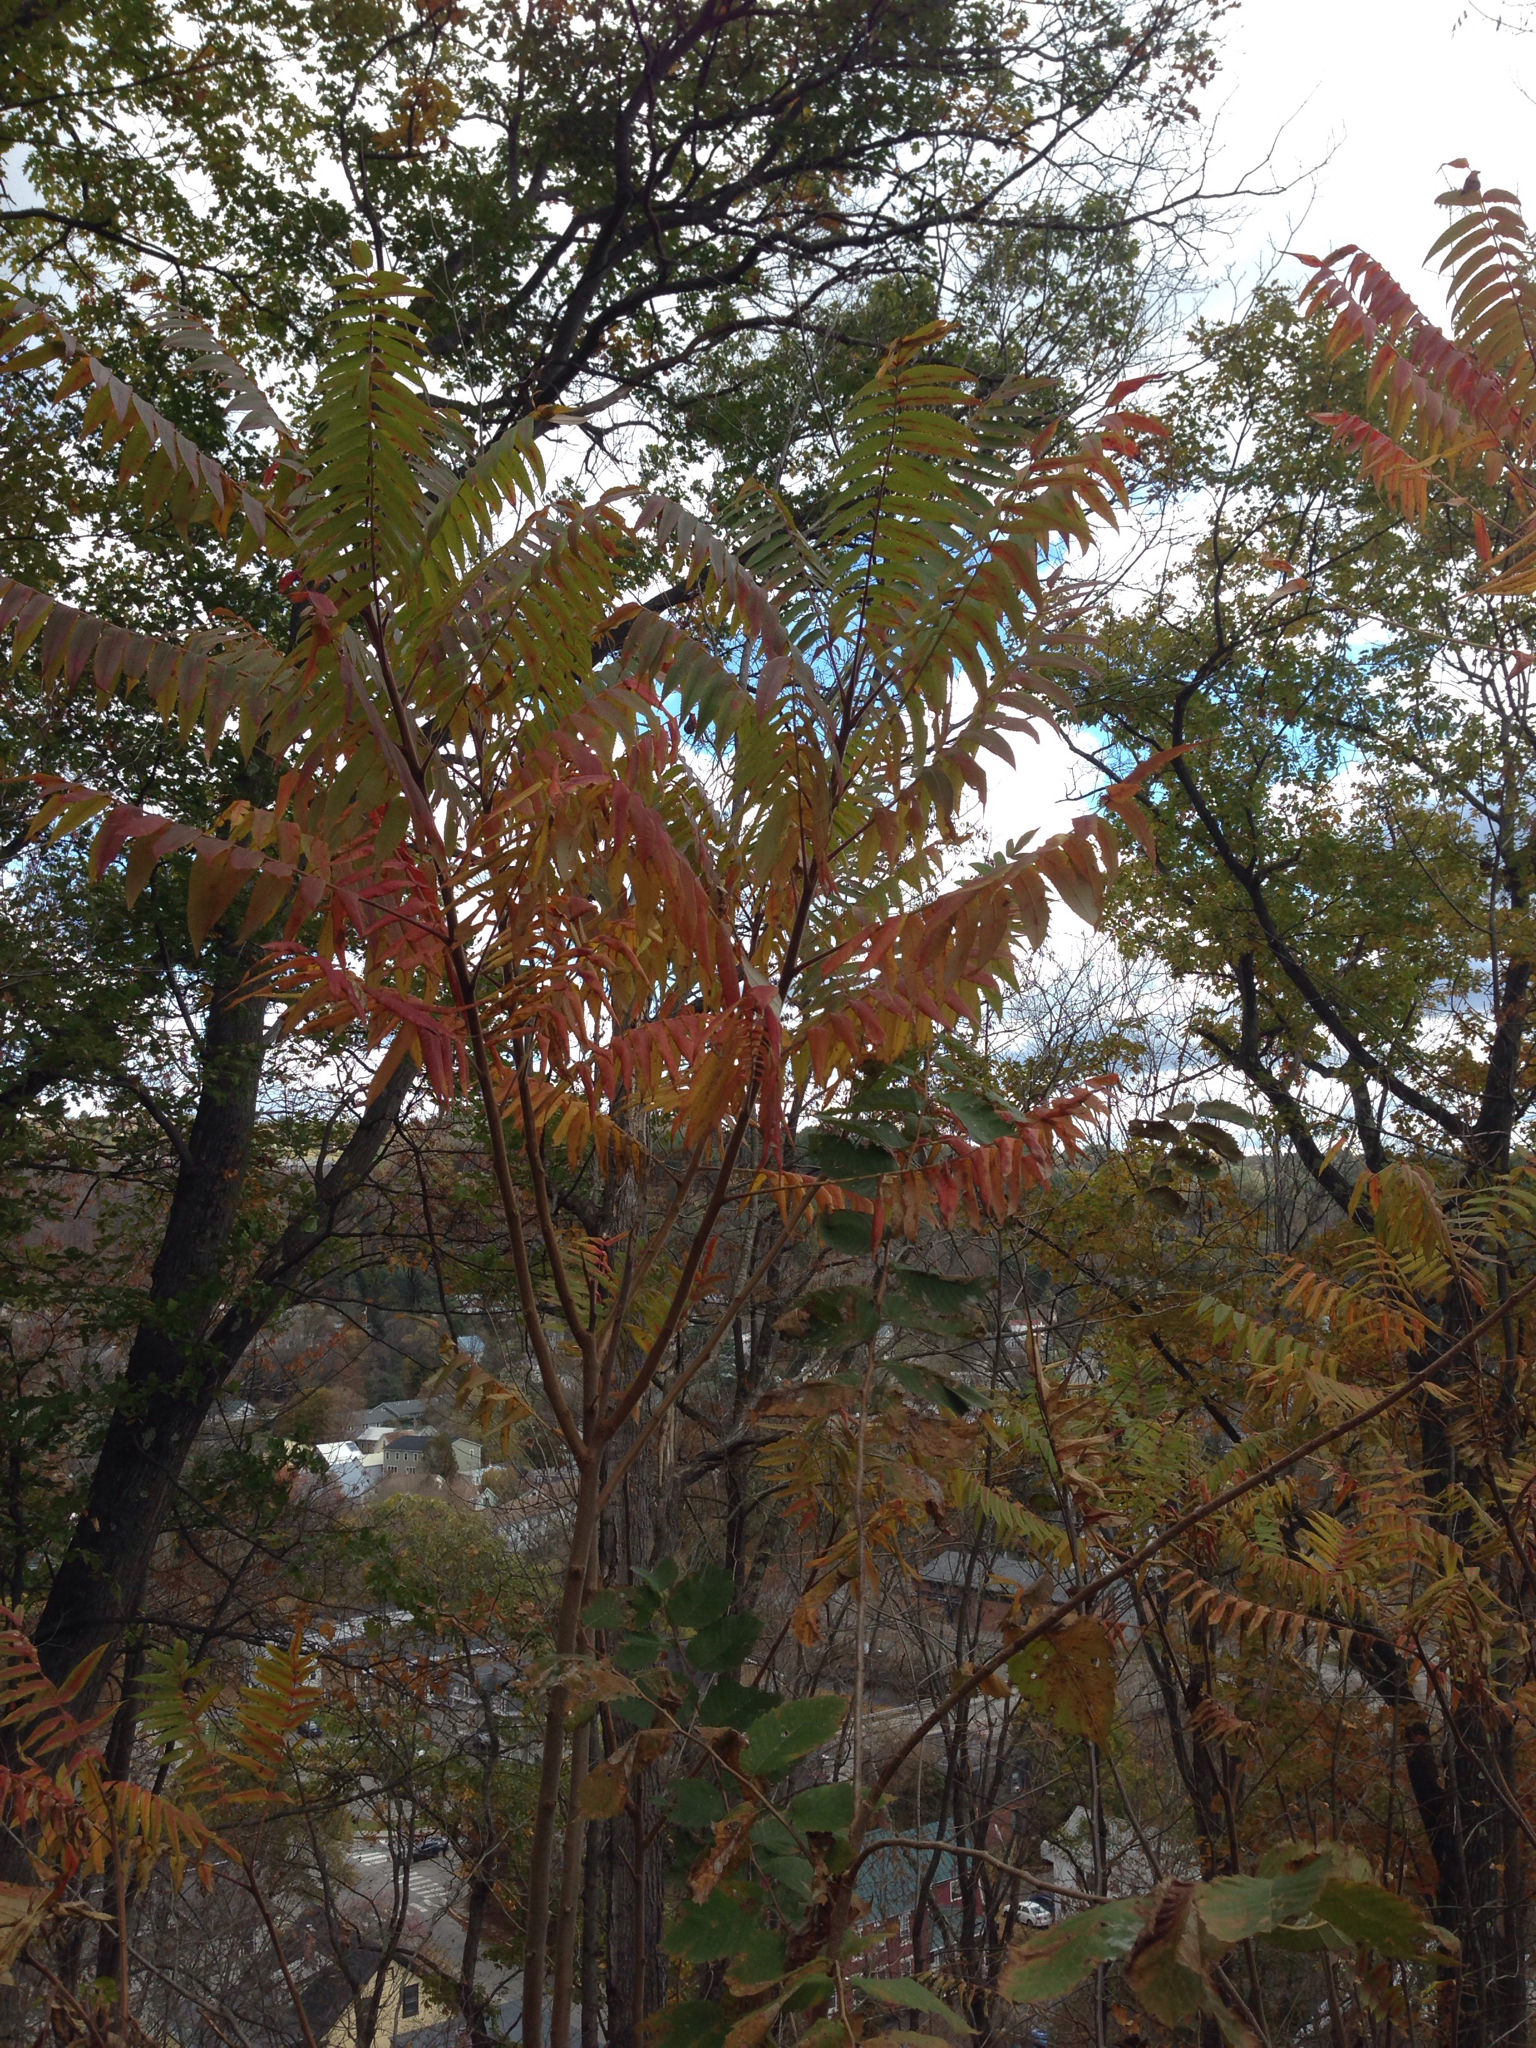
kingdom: Plantae
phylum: Tracheophyta
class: Magnoliopsida
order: Sapindales
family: Anacardiaceae
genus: Rhus
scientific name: Rhus typhina
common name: Staghorn sumac
